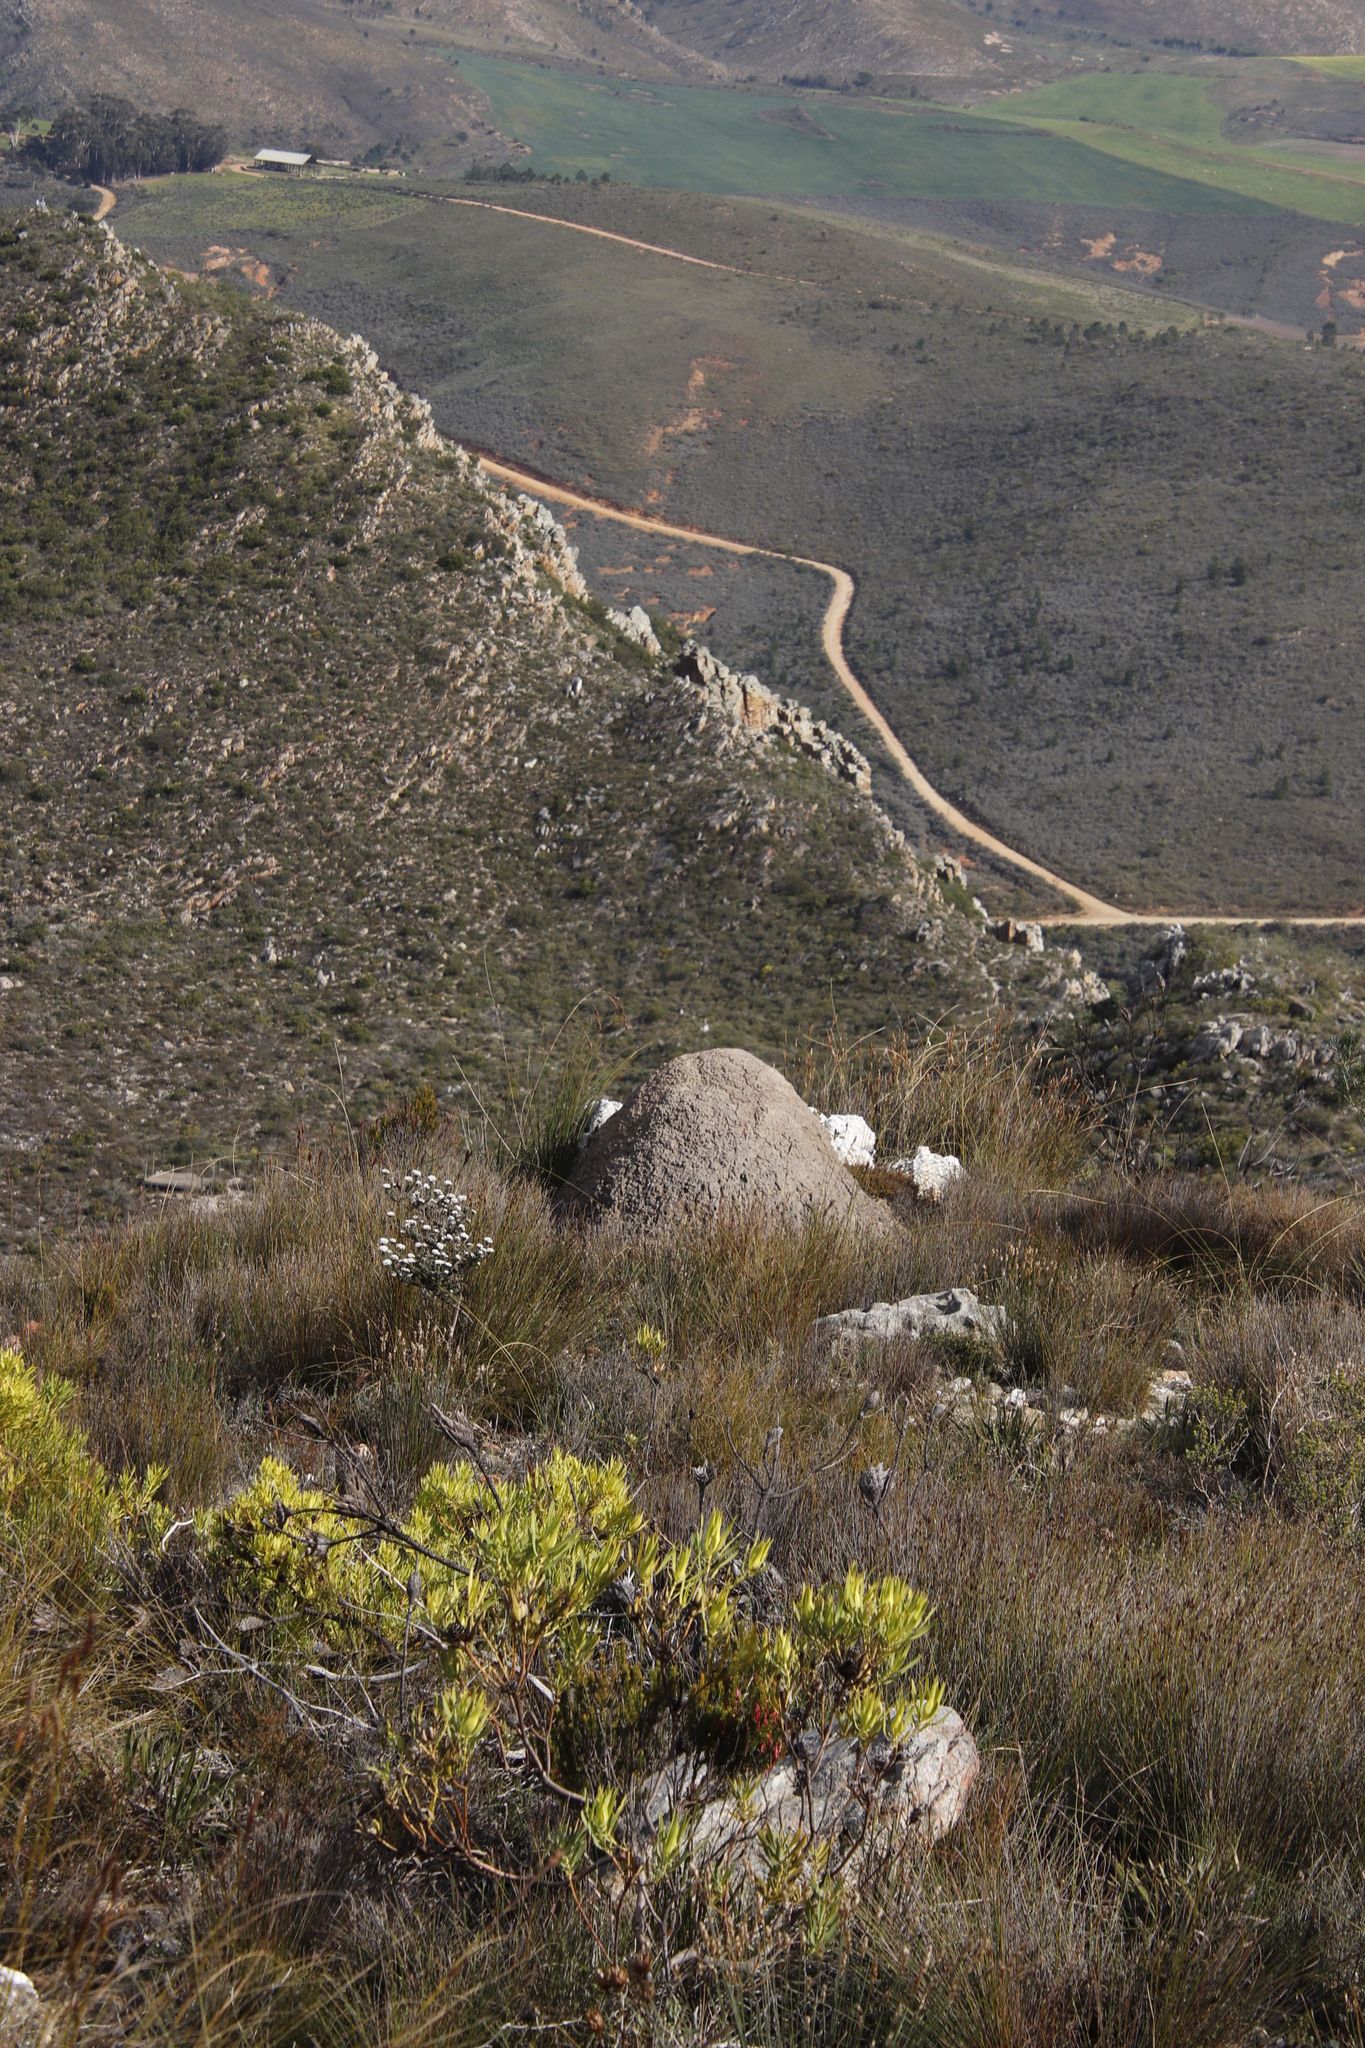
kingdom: Plantae
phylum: Tracheophyta
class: Magnoliopsida
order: Proteales
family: Proteaceae
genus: Leucadendron
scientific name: Leucadendron salignum
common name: Common sunshine conebush
